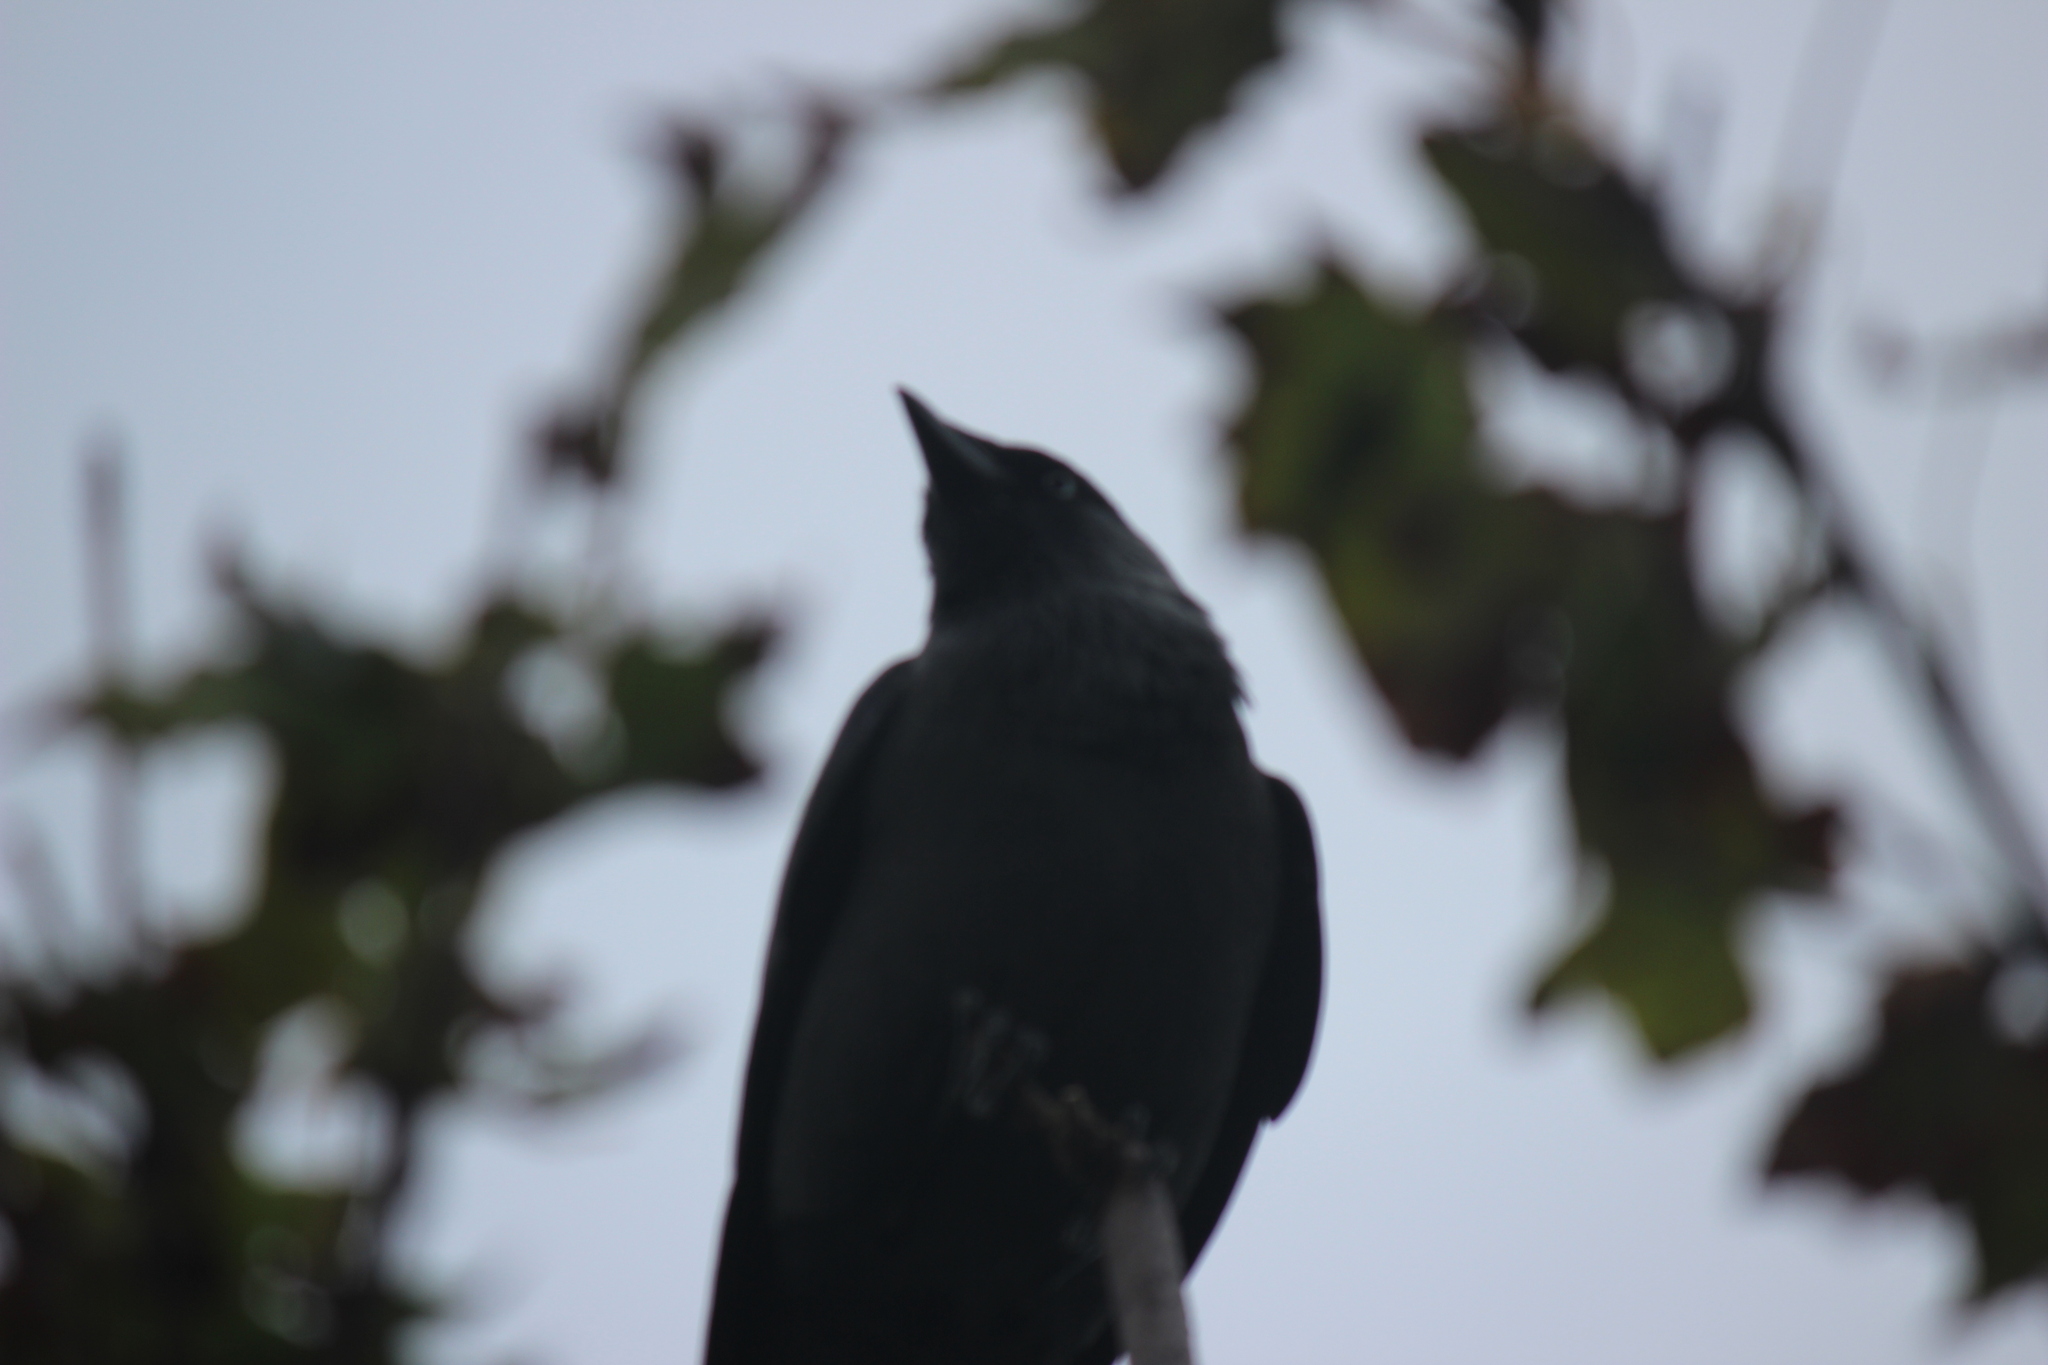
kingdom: Animalia
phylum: Chordata
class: Aves
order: Passeriformes
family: Corvidae
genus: Coloeus
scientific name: Coloeus monedula
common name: Western jackdaw
